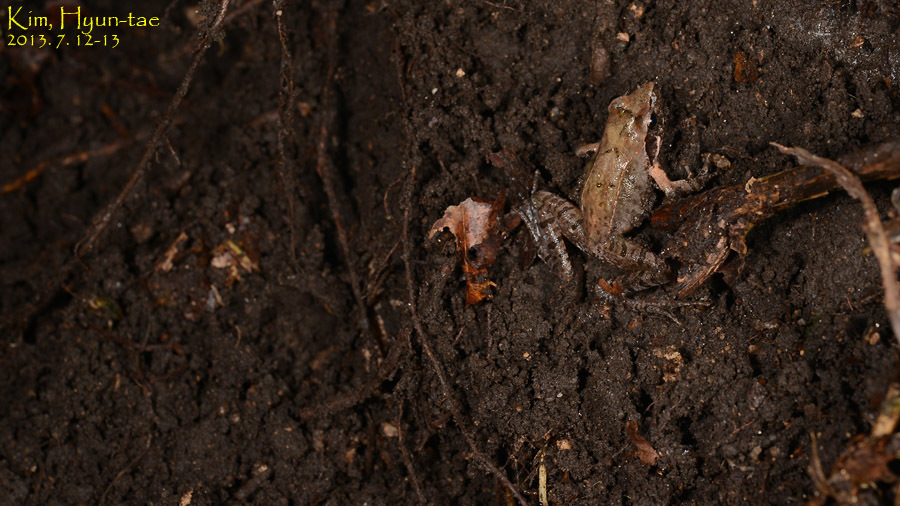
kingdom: Animalia
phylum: Chordata
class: Amphibia
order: Anura
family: Ranidae
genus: Rana
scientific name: Rana uenoi
